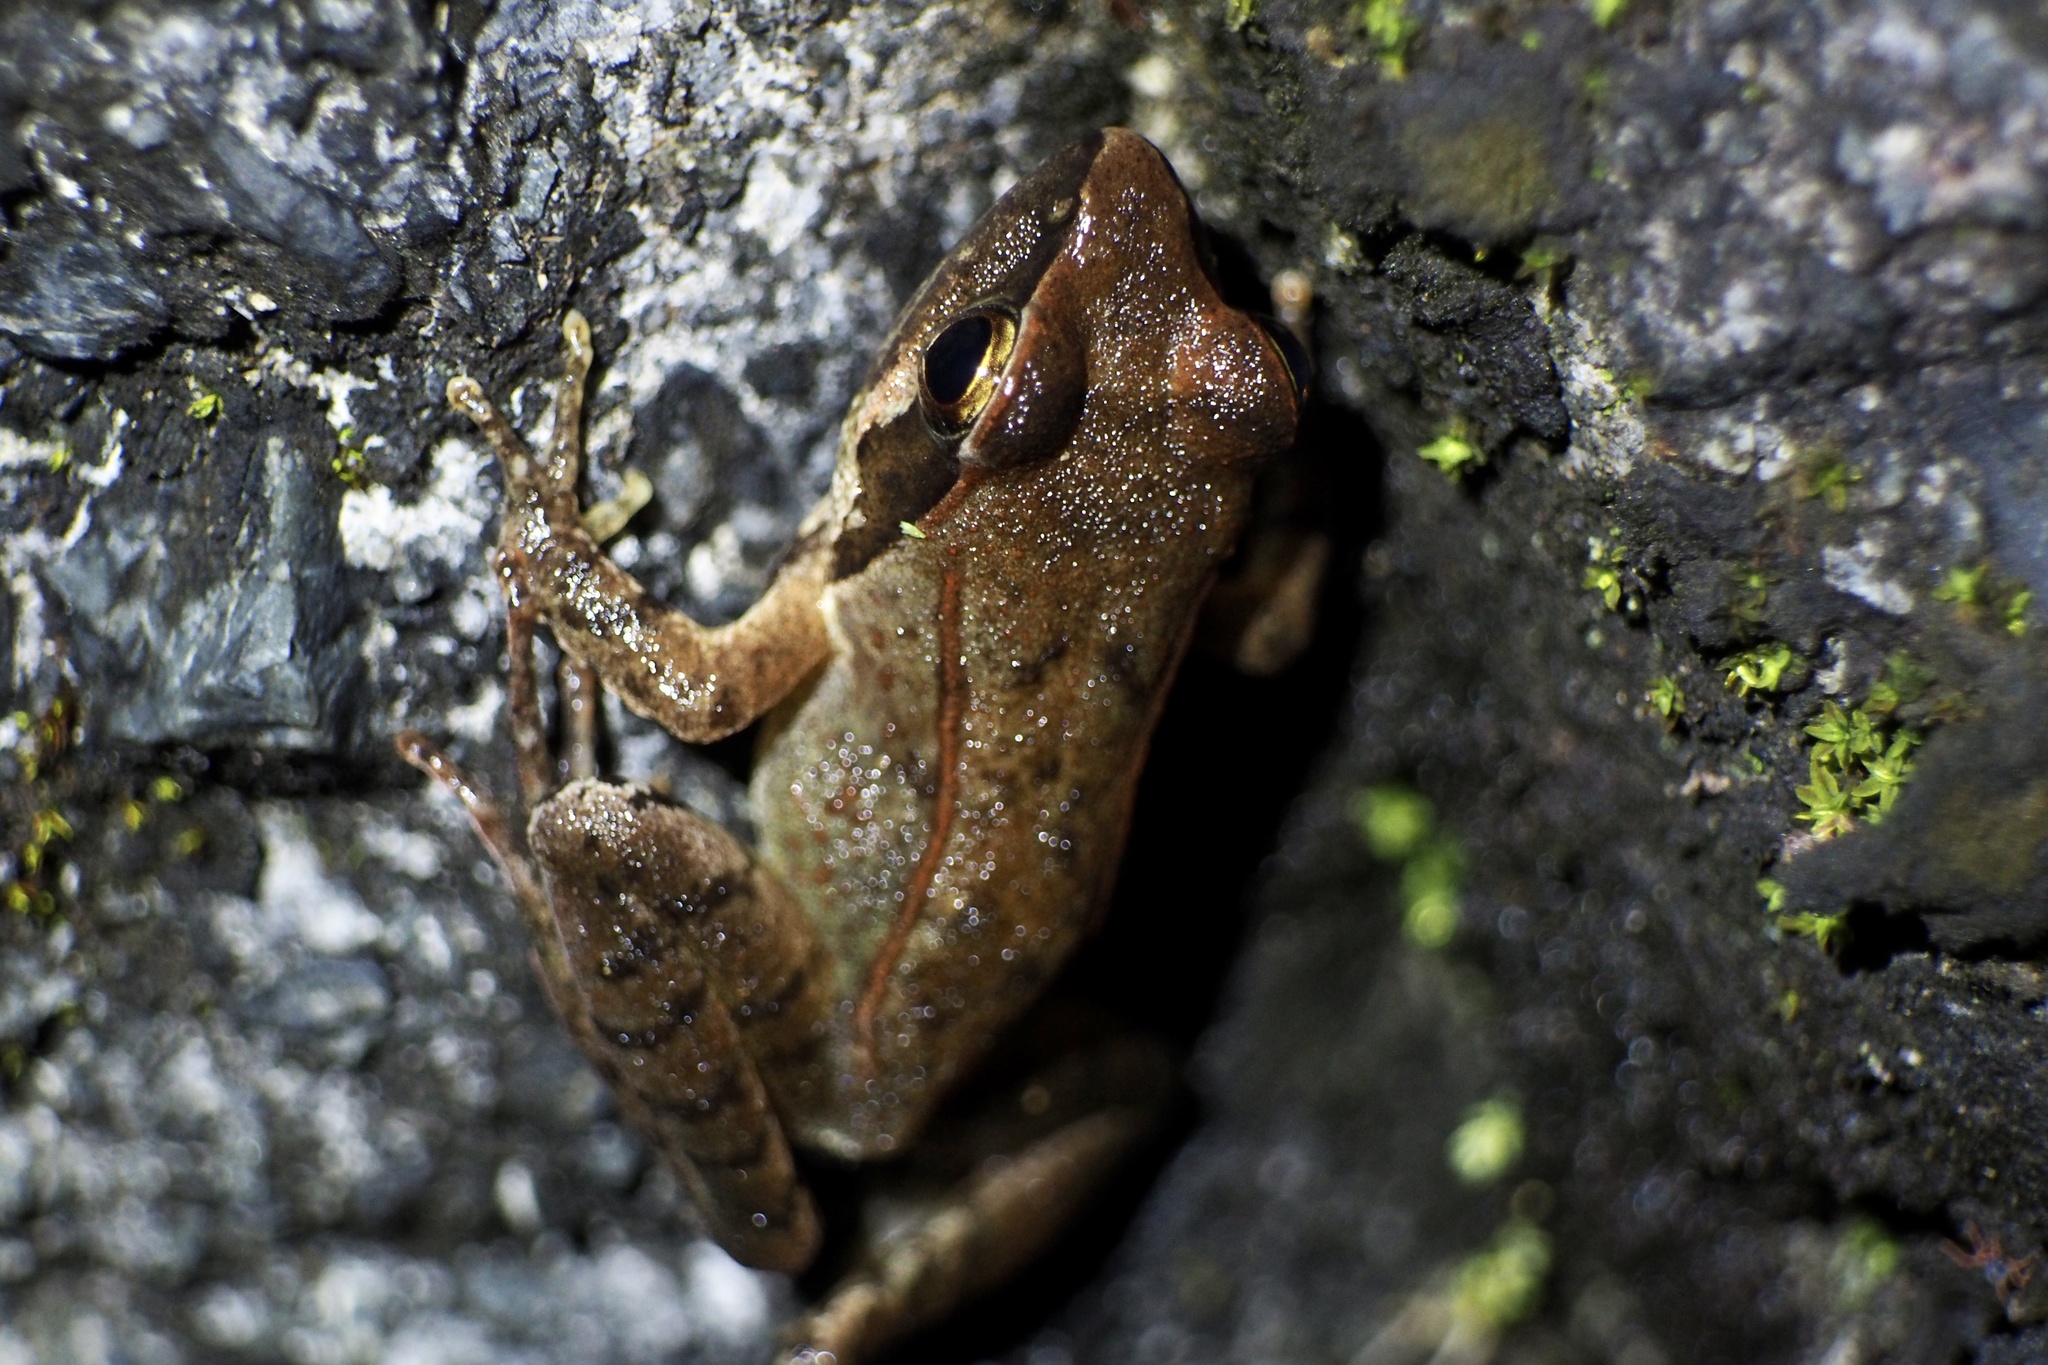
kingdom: Animalia
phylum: Chordata
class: Amphibia
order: Anura
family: Ranidae
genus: Rana
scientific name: Rana ornativentris
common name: Montane brown frog
